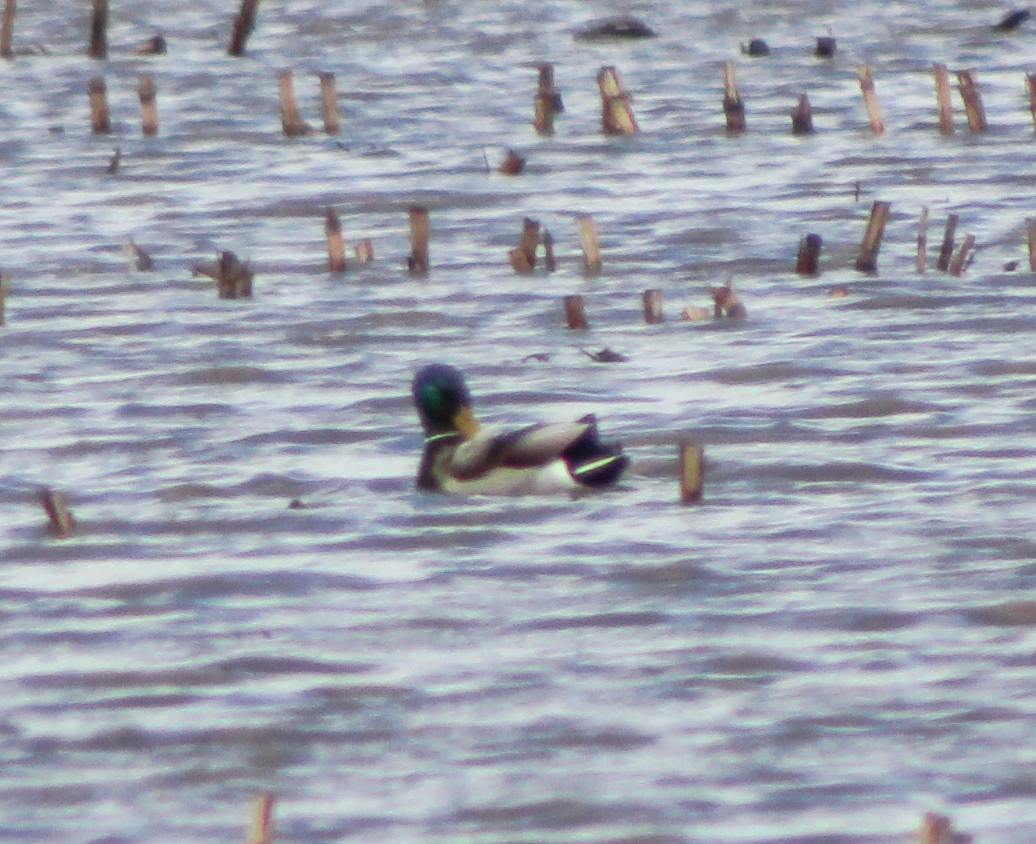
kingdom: Animalia
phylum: Chordata
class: Aves
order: Anseriformes
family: Anatidae
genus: Anas
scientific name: Anas platyrhynchos
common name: Mallard
